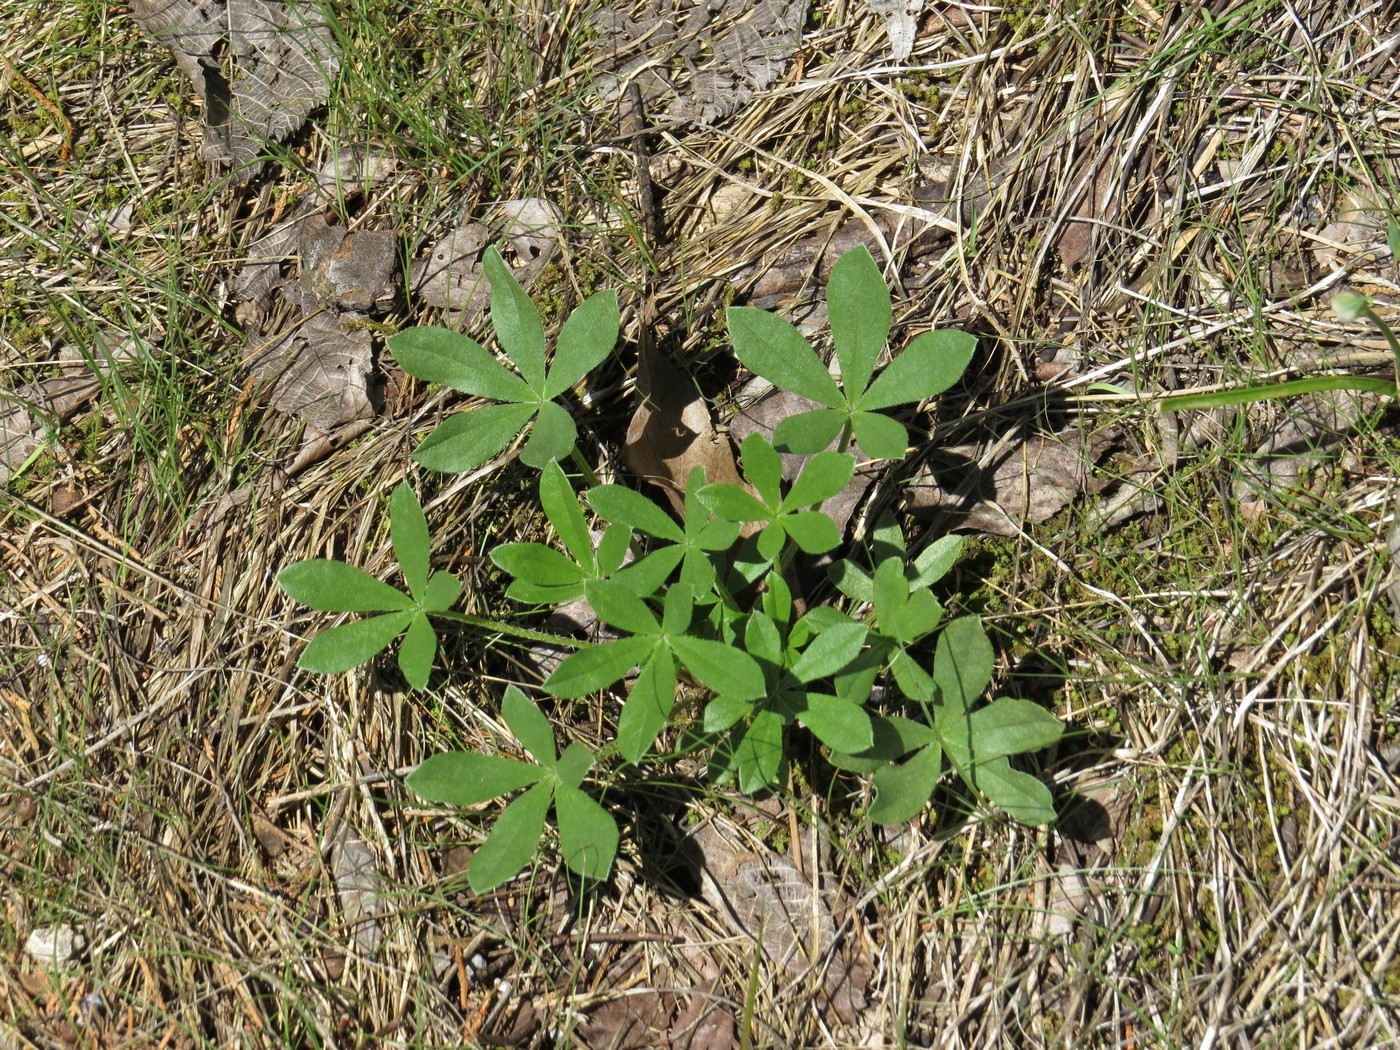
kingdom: Plantae
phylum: Tracheophyta
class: Magnoliopsida
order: Fabales
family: Fabaceae
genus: Pediomelum
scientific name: Pediomelum subacaule
